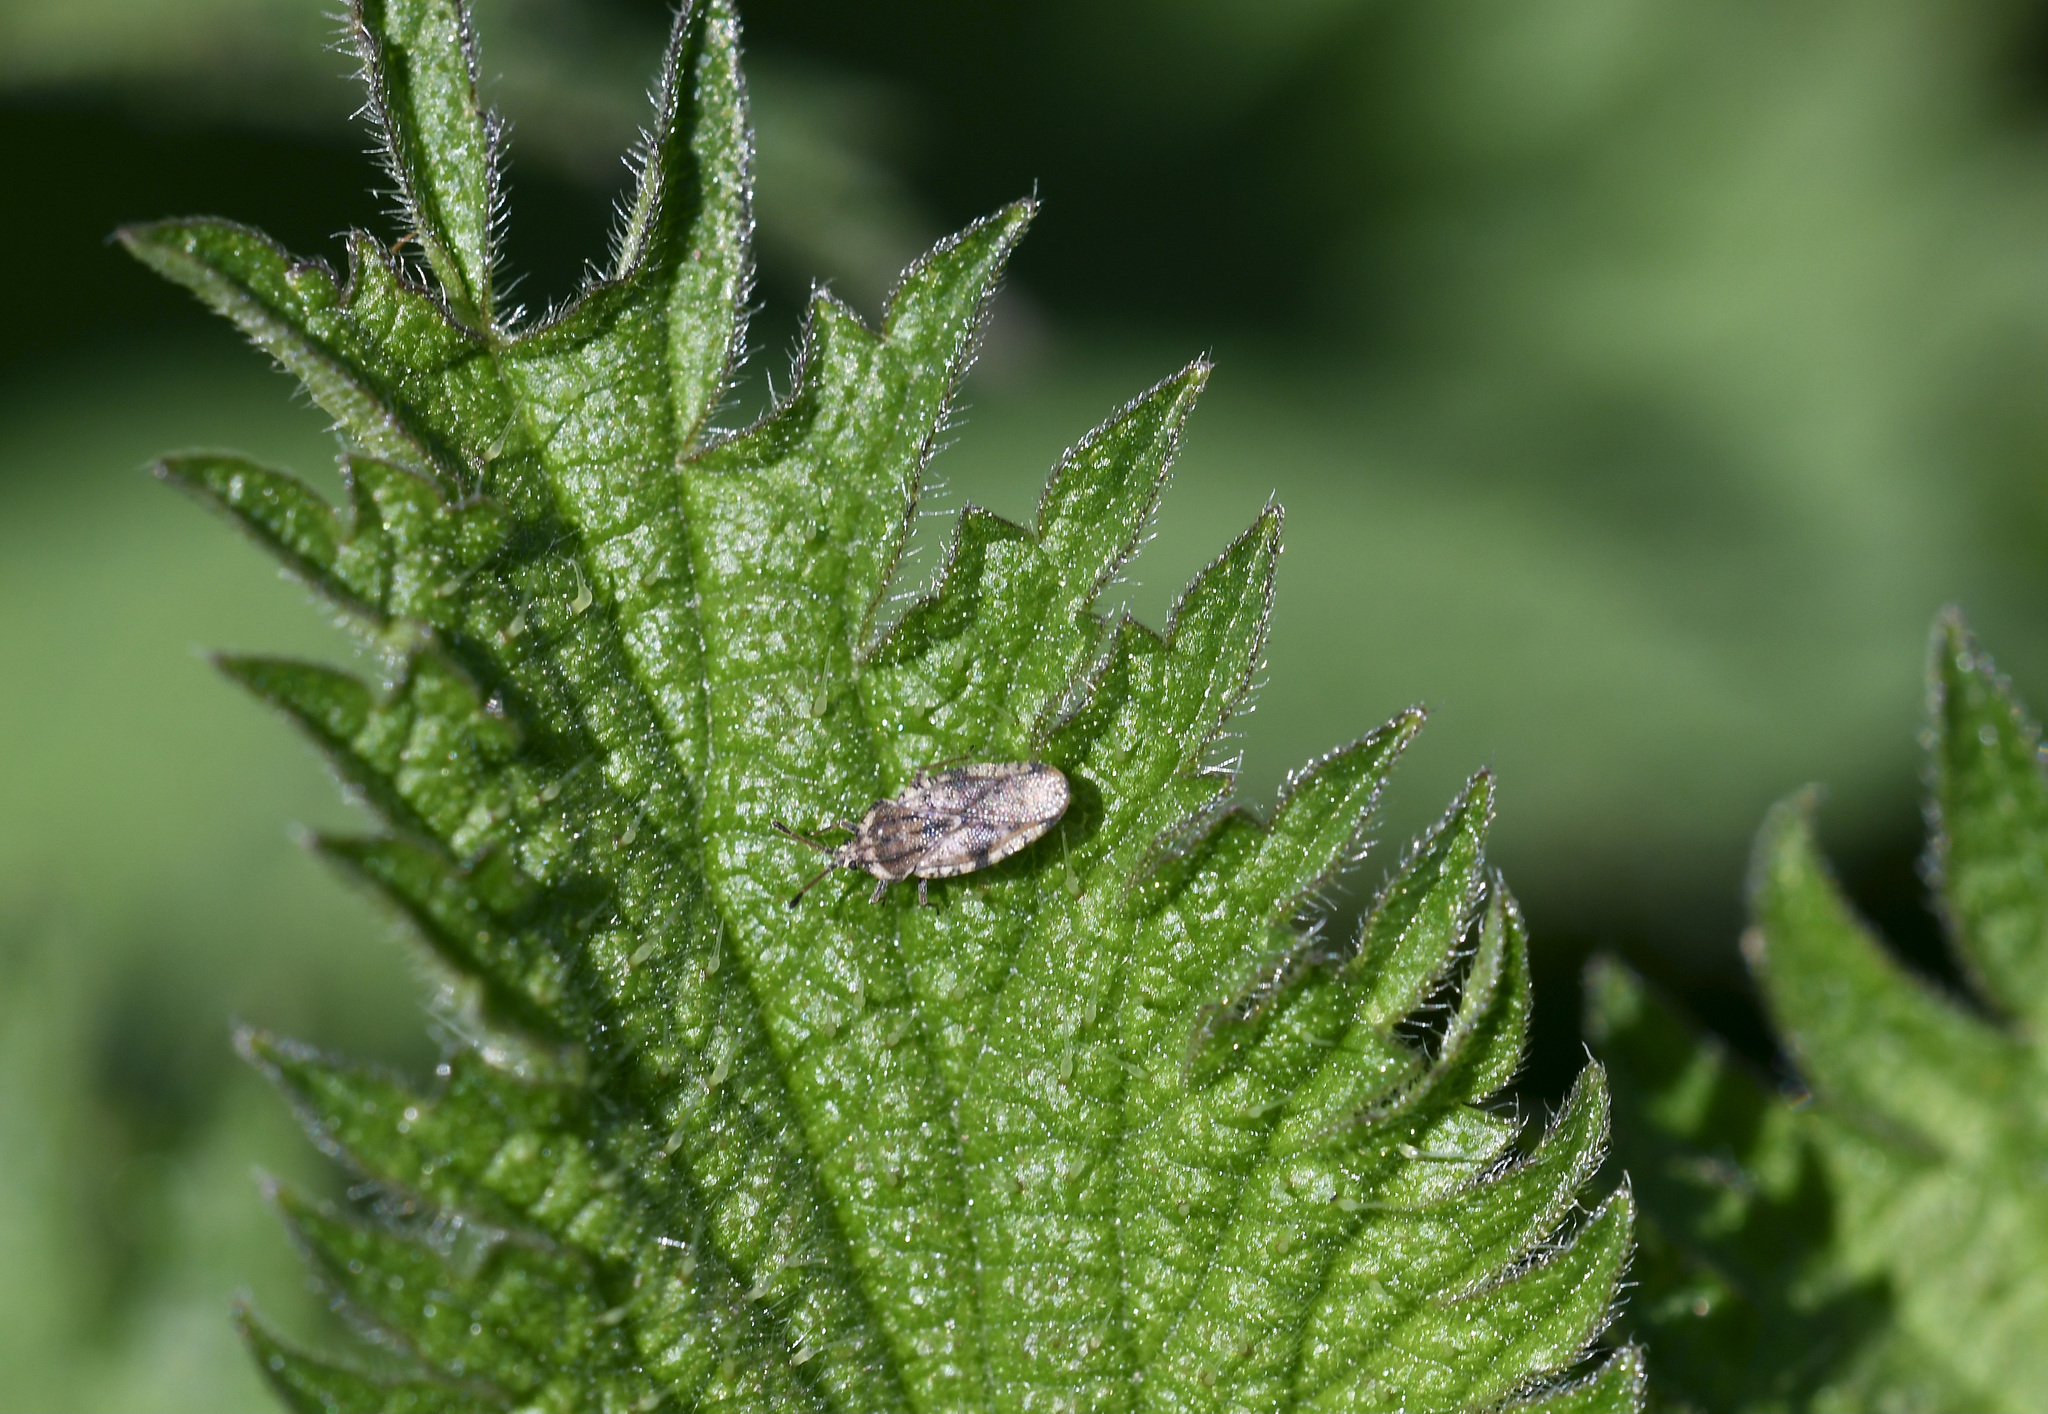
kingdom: Animalia
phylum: Arthropoda
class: Insecta
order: Hemiptera
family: Tingidae
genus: Tingis
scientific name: Tingis cardui
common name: Spear thistle lacebug
